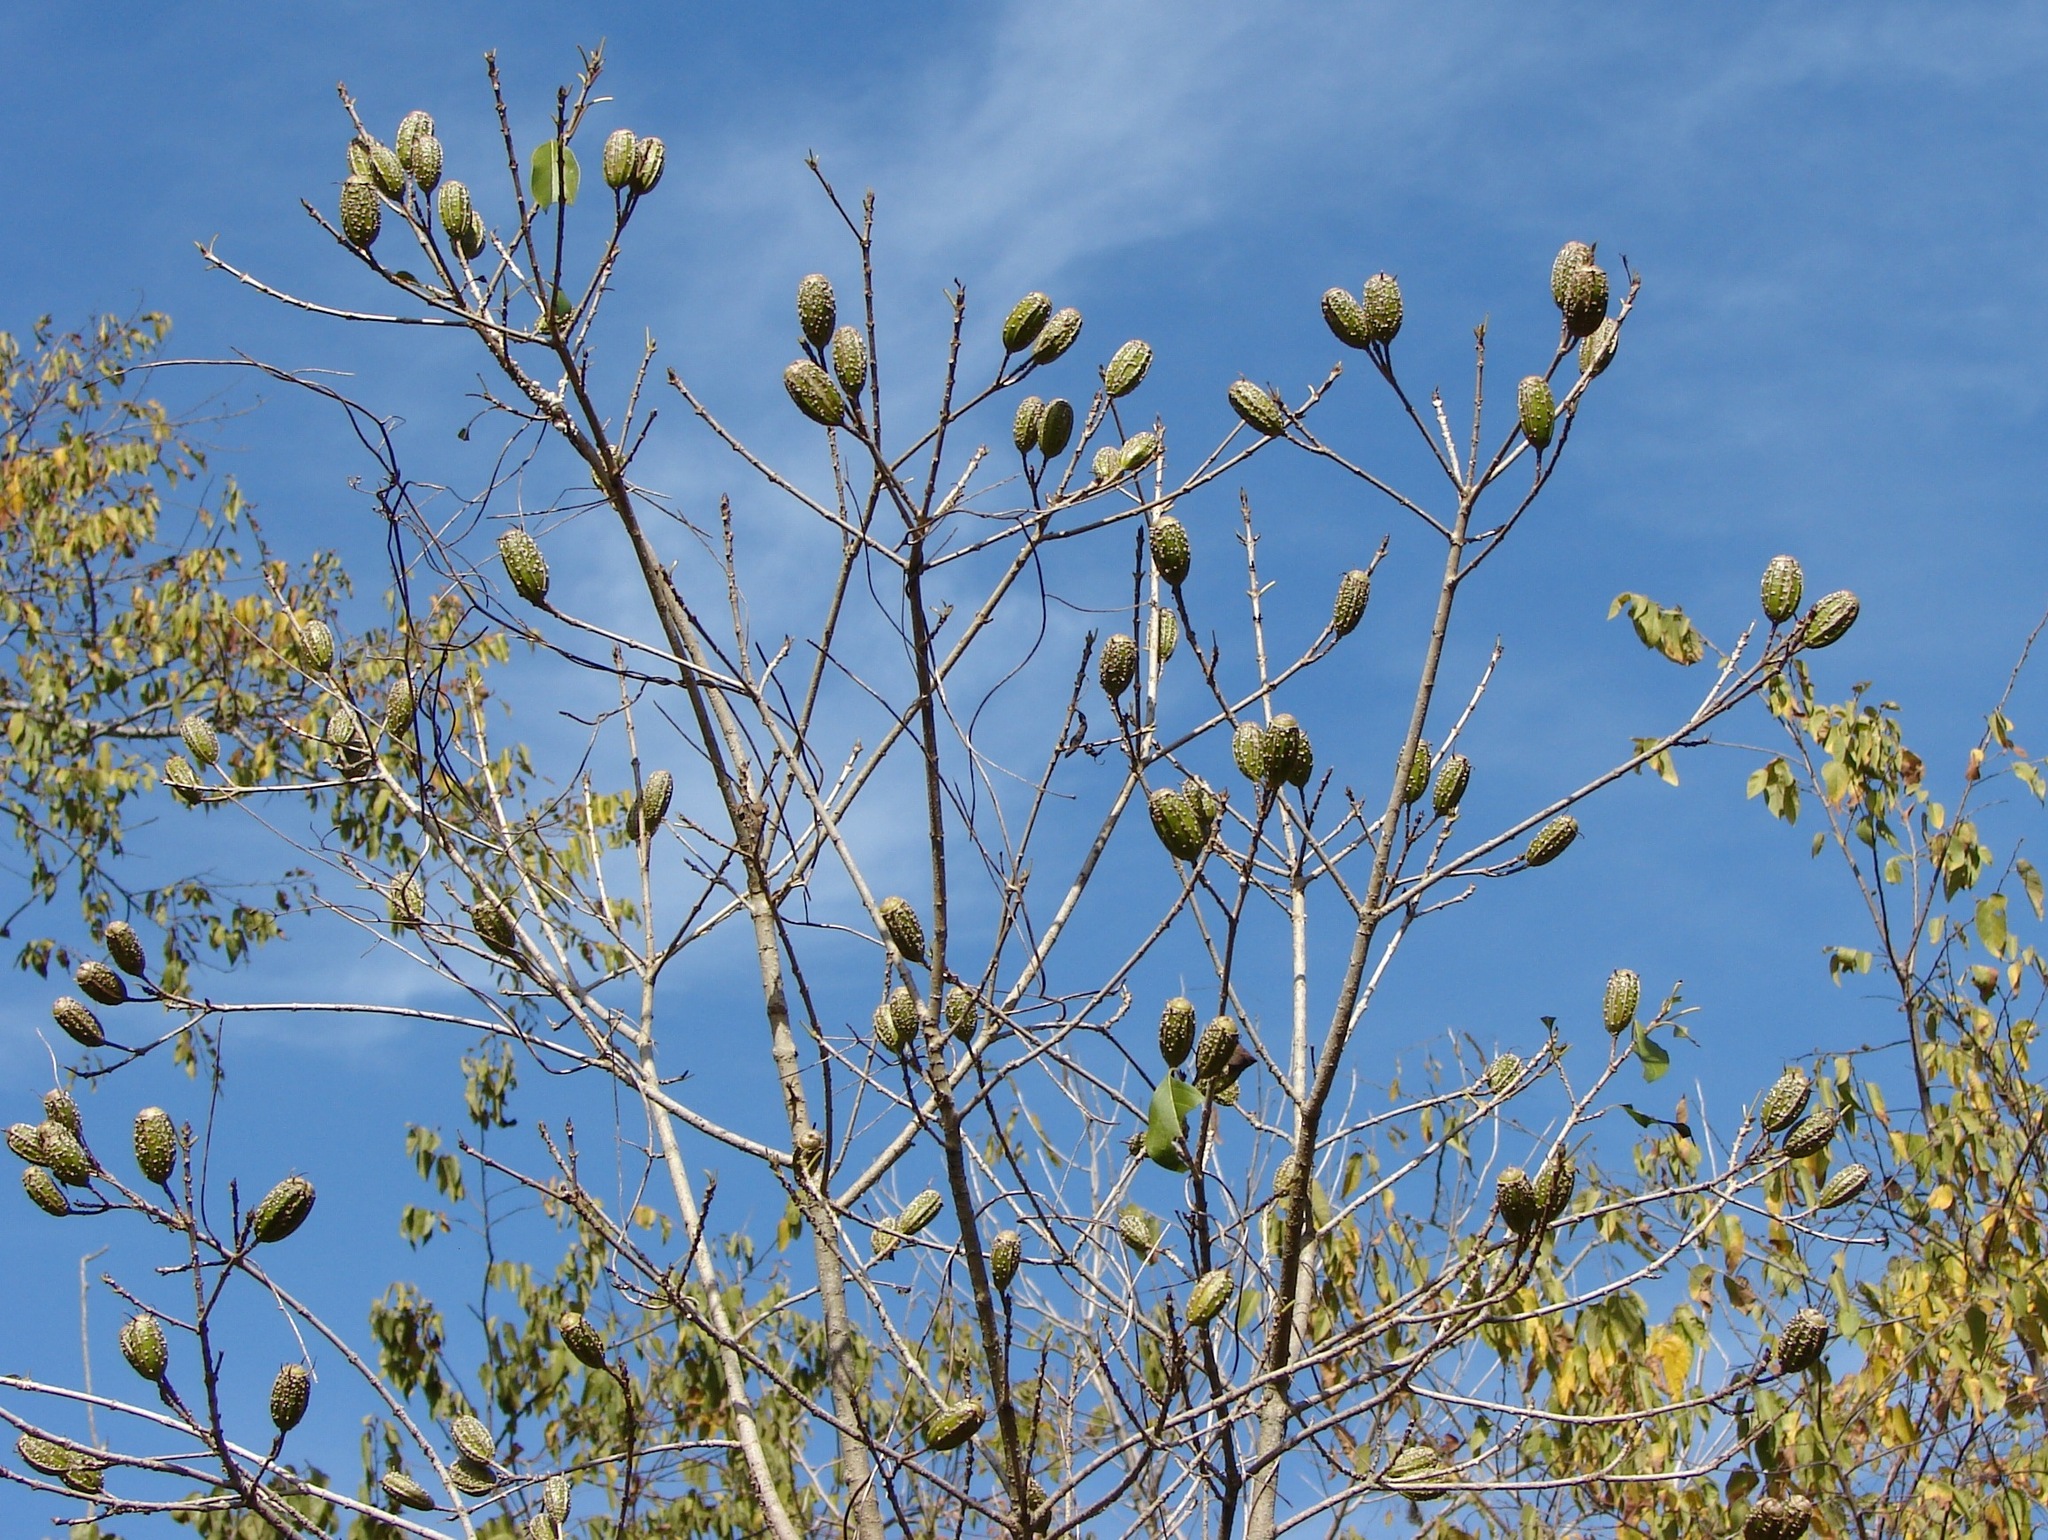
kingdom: Plantae
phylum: Tracheophyta
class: Magnoliopsida
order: Gentianales
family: Rubiaceae
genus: Hintonia
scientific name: Hintonia latiflora
